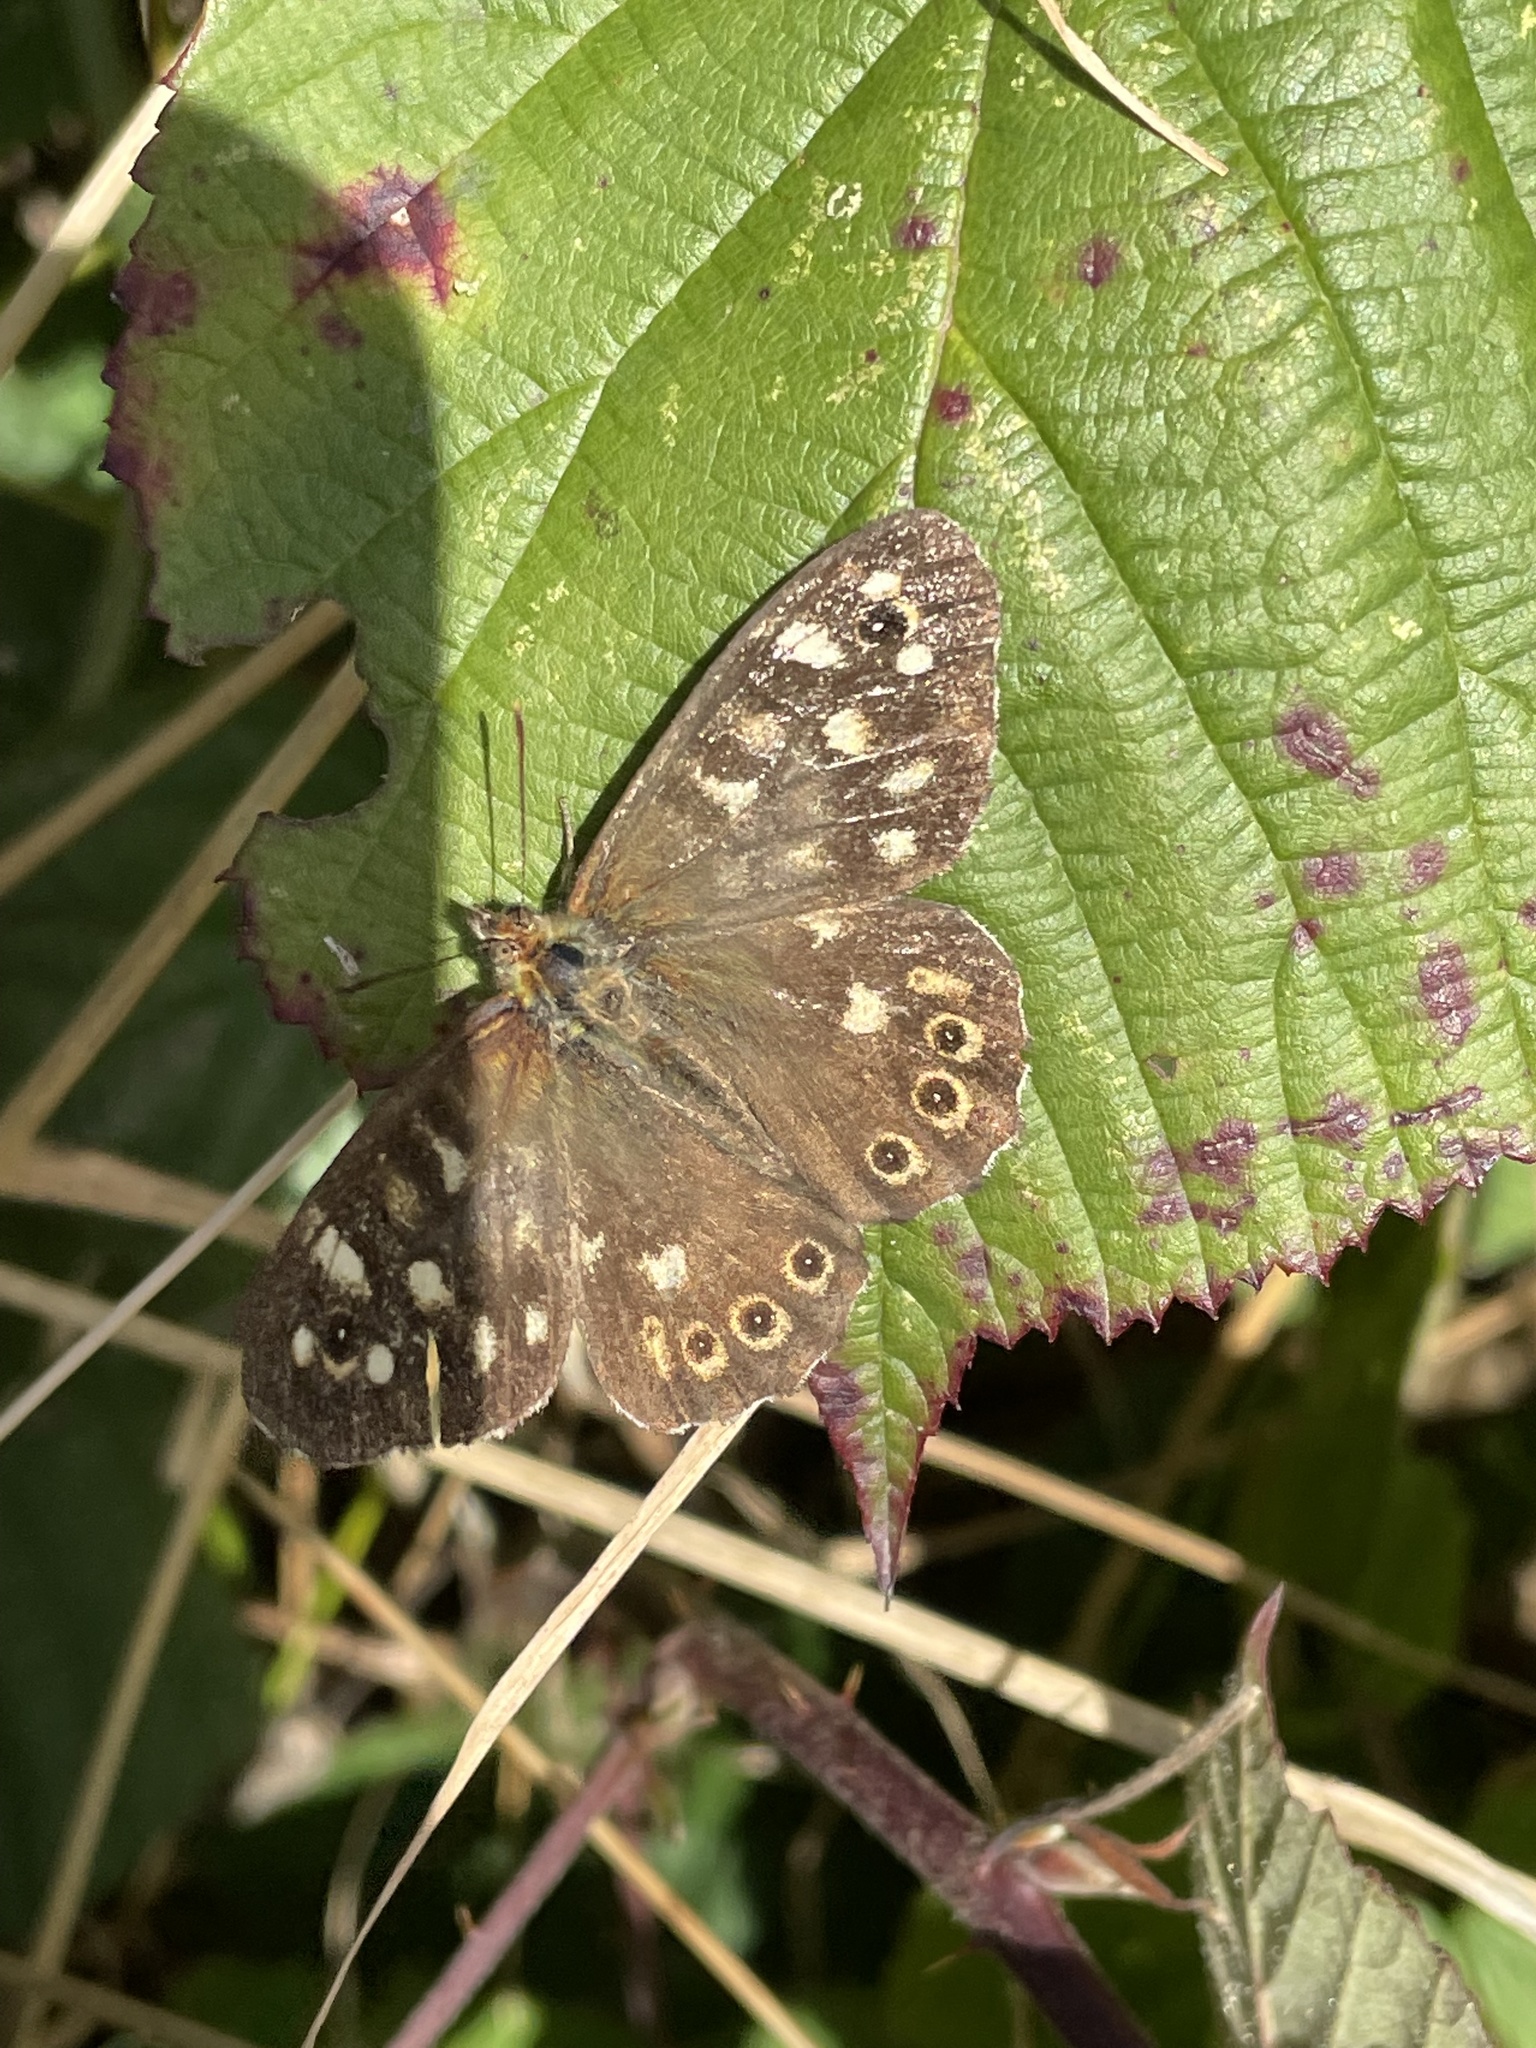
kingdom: Animalia
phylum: Arthropoda
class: Insecta
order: Lepidoptera
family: Nymphalidae
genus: Pararge
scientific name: Pararge aegeria
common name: Speckled wood
